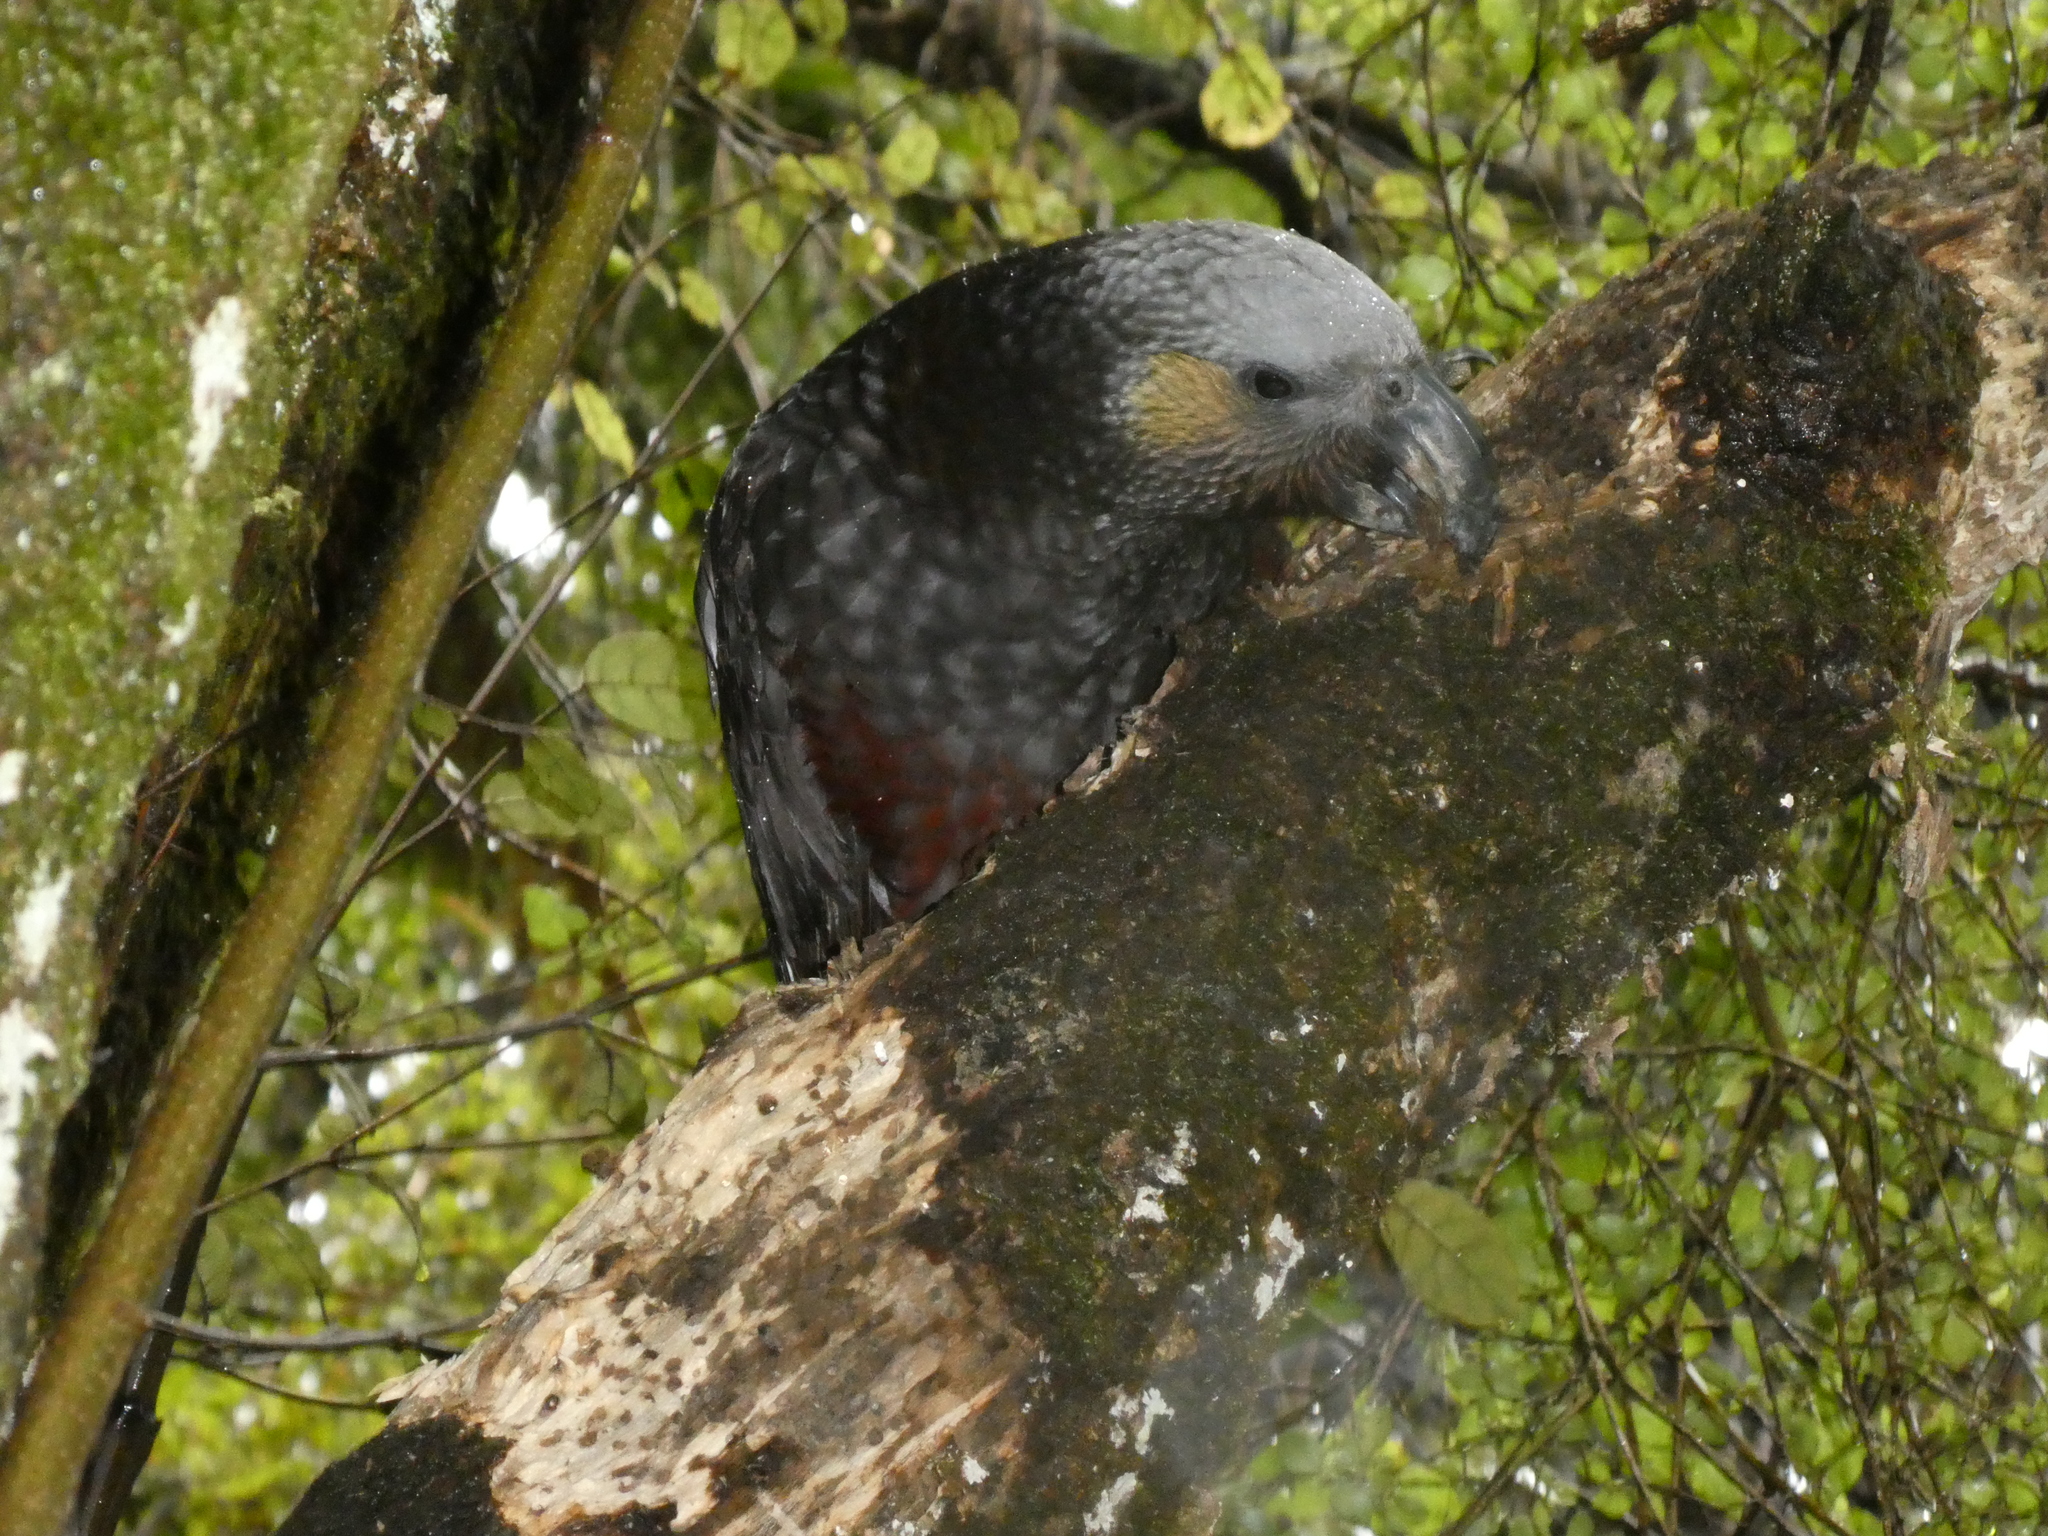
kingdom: Animalia
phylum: Chordata
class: Aves
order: Psittaciformes
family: Psittacidae
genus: Nestor
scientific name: Nestor meridionalis
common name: New zealand kaka
